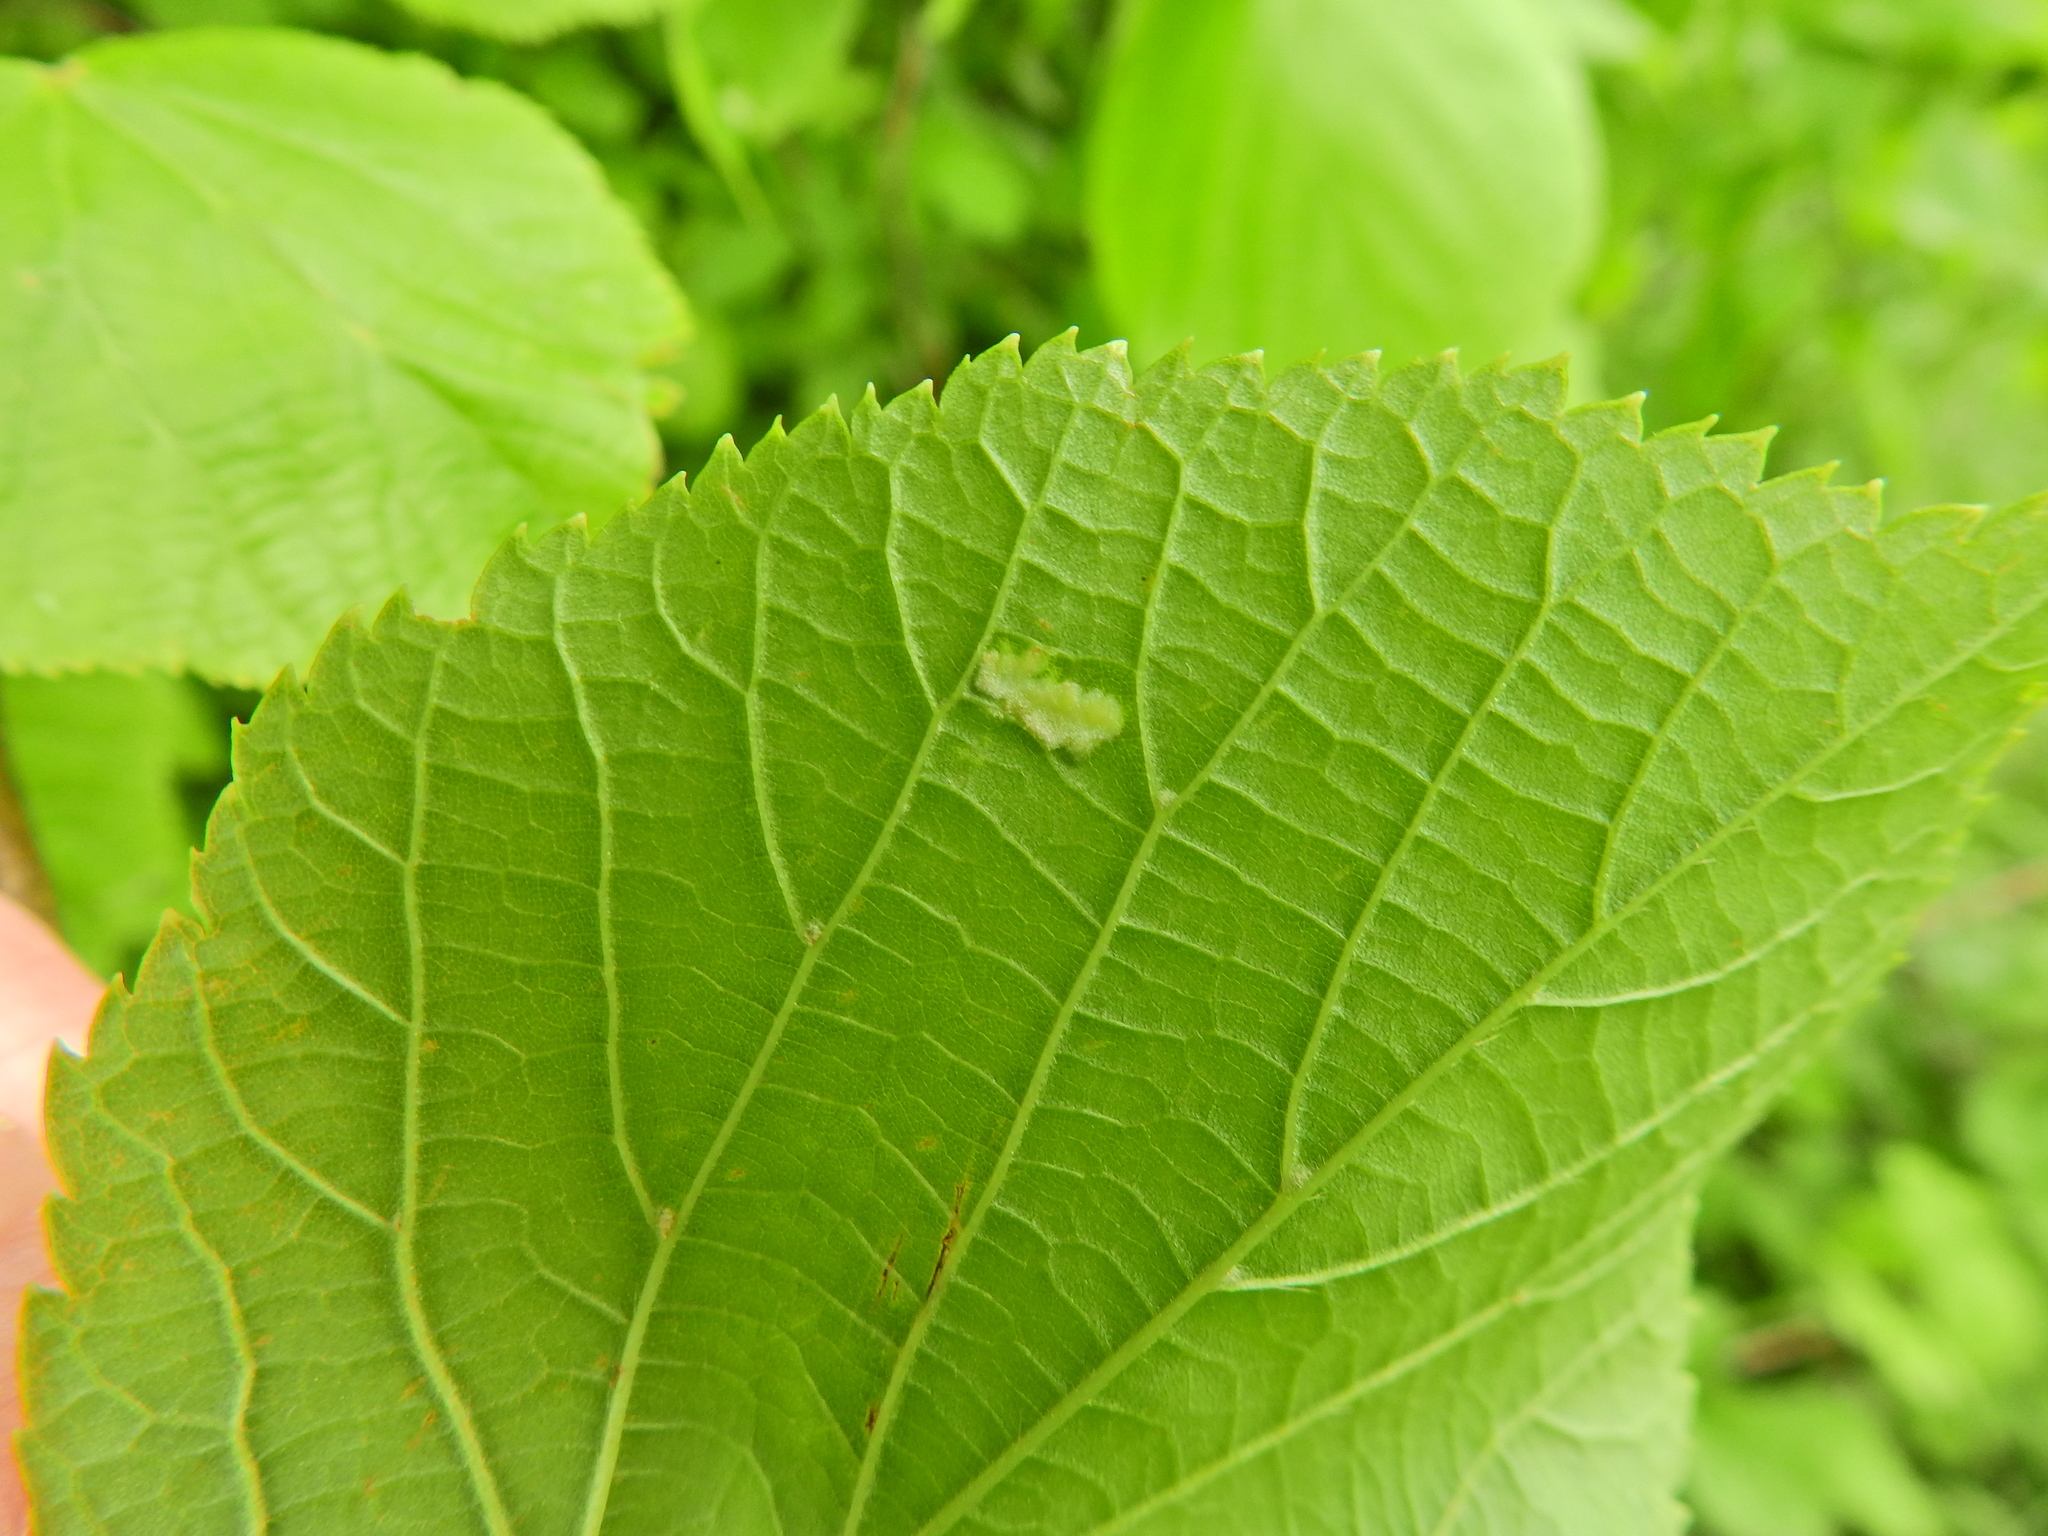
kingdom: Animalia
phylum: Arthropoda
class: Arachnida
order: Trombidiformes
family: Eriophyidae
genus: Eriophyes
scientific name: Eriophyes leiosoma
